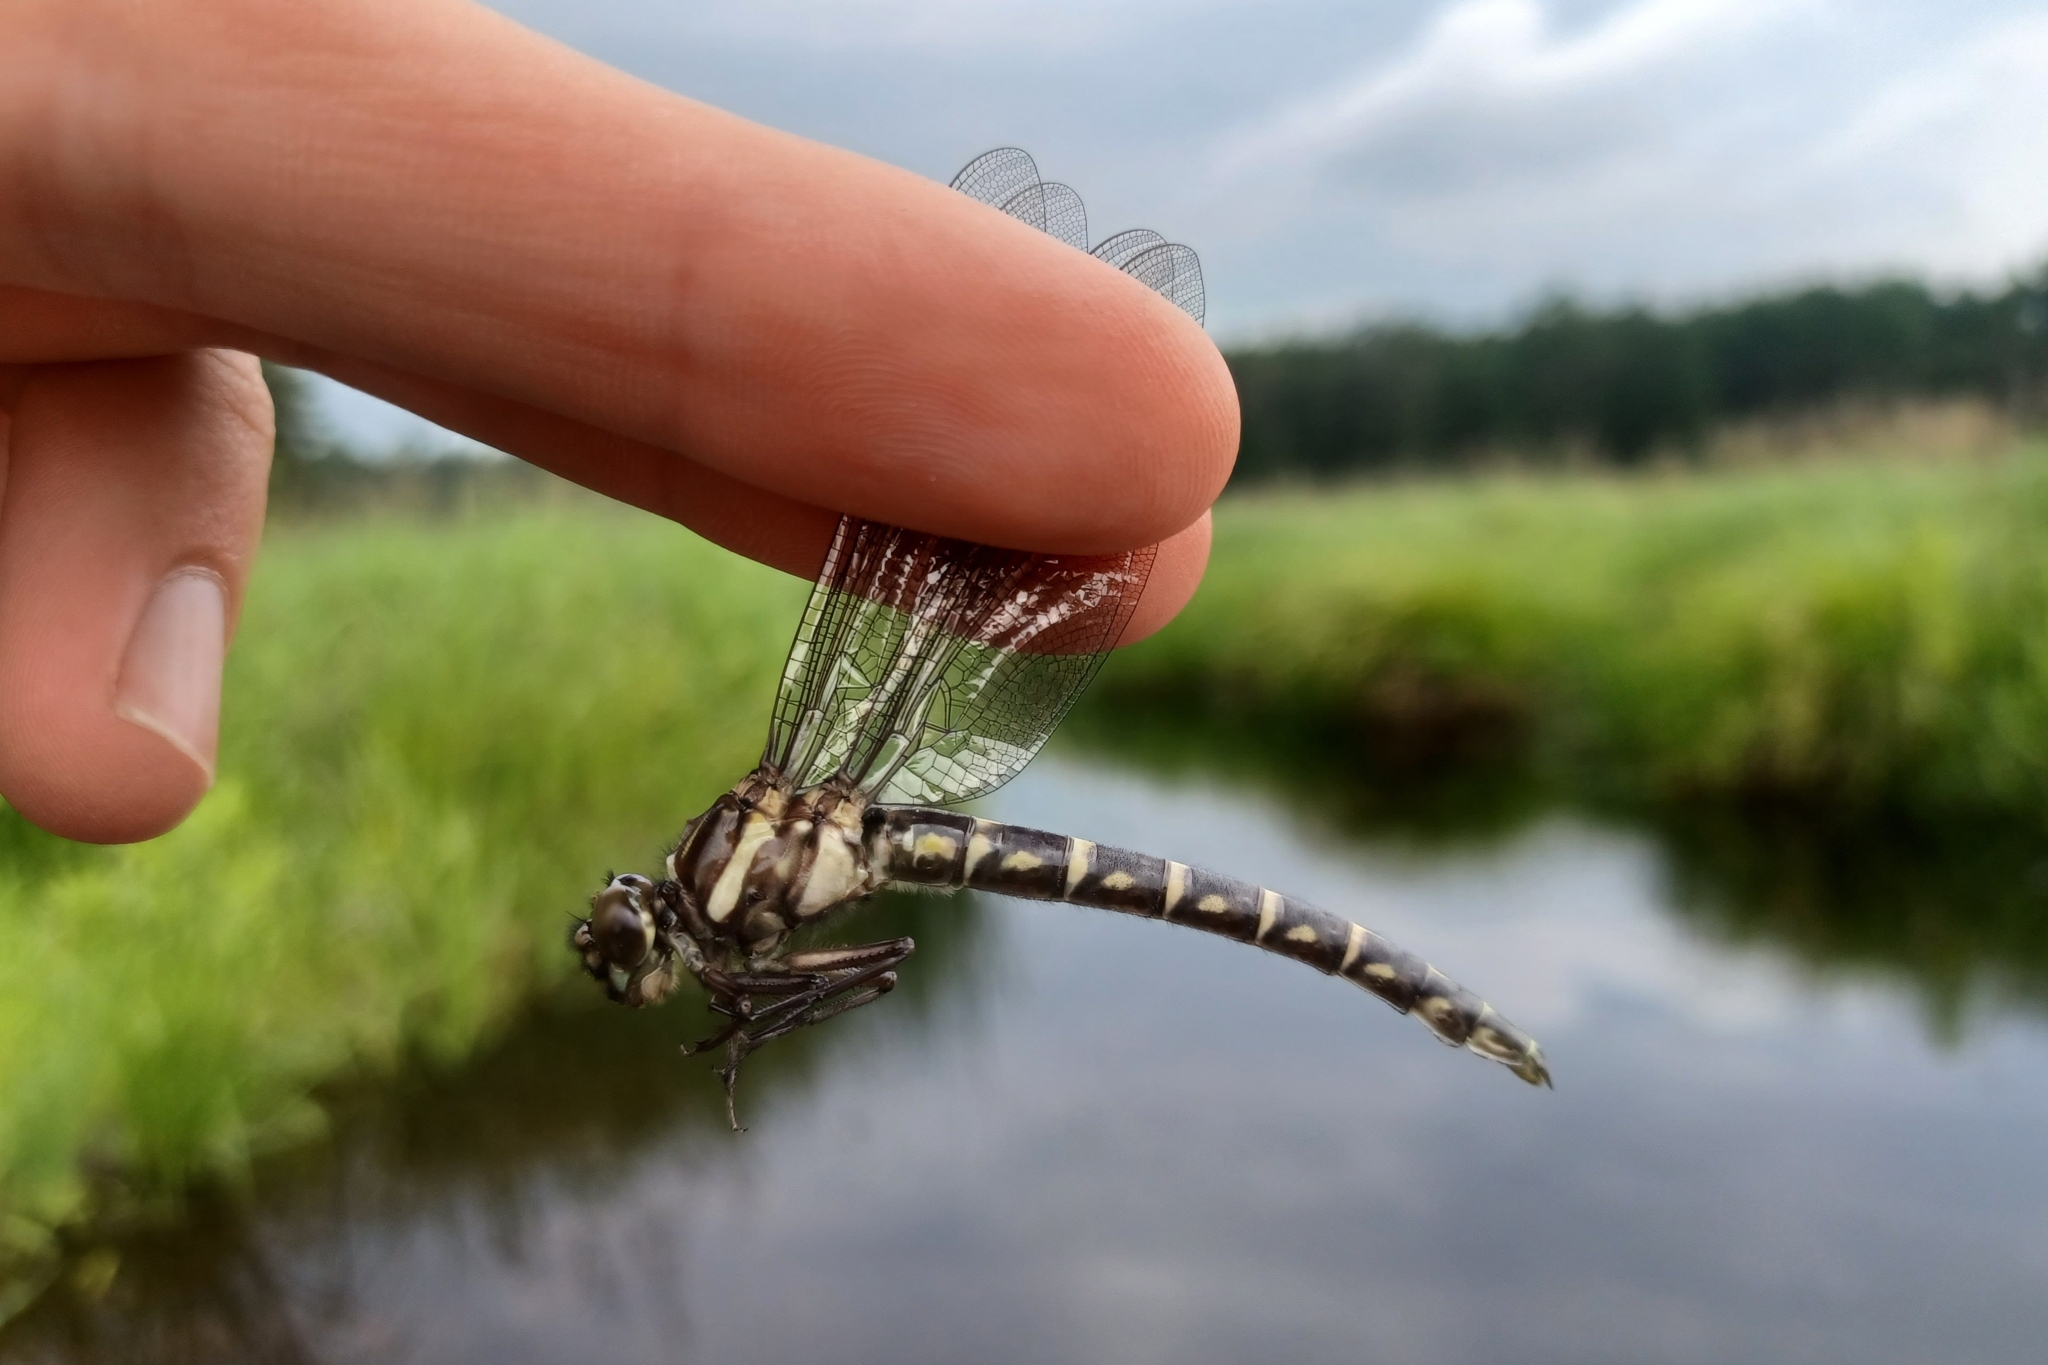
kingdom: Animalia
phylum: Arthropoda
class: Insecta
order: Odonata
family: Gomphidae
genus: Stylurus
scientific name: Stylurus scudderi
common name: Zebra clubtail
